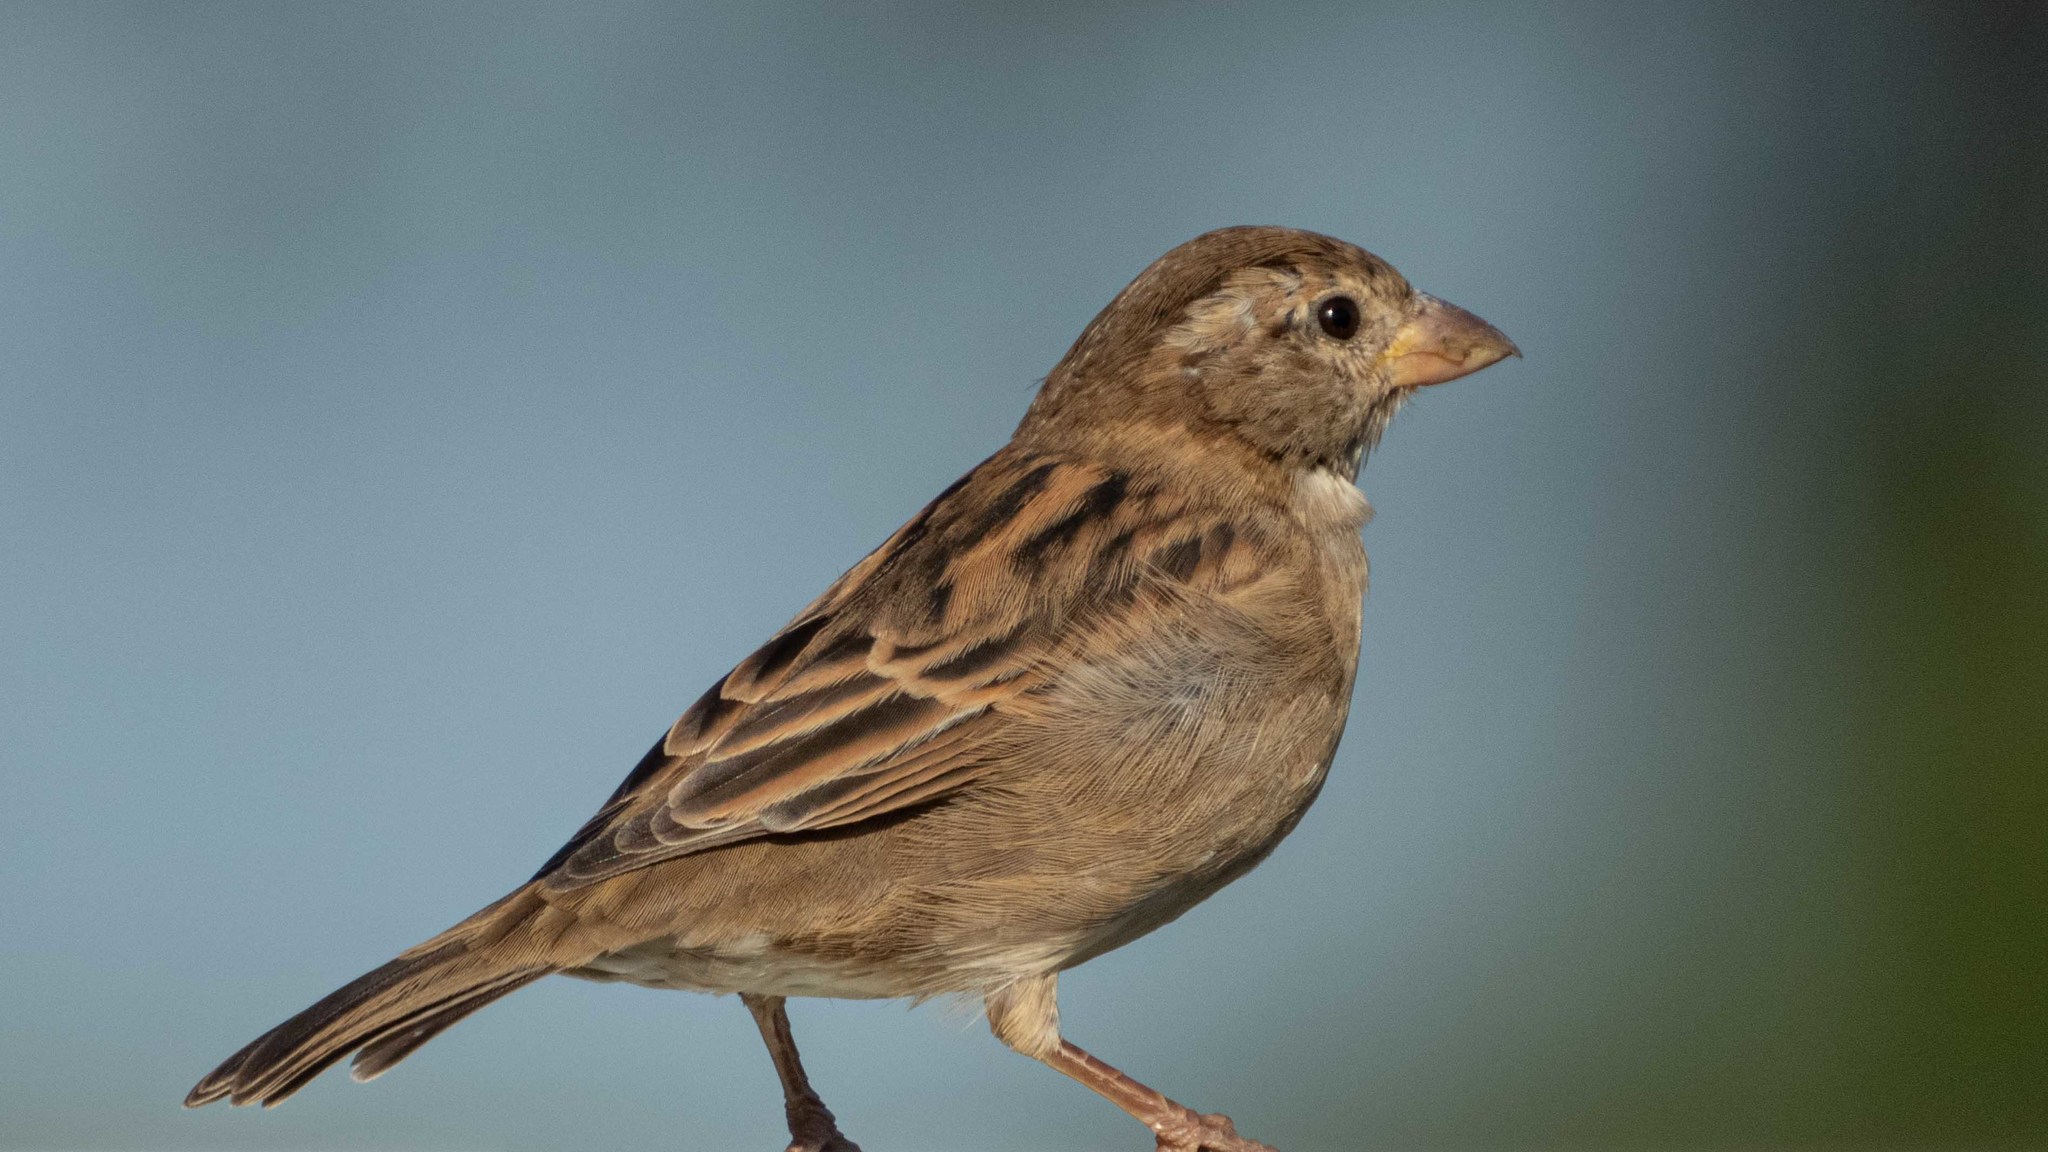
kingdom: Animalia
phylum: Chordata
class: Aves
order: Passeriformes
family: Passeridae
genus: Passer
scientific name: Passer domesticus
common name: House sparrow
